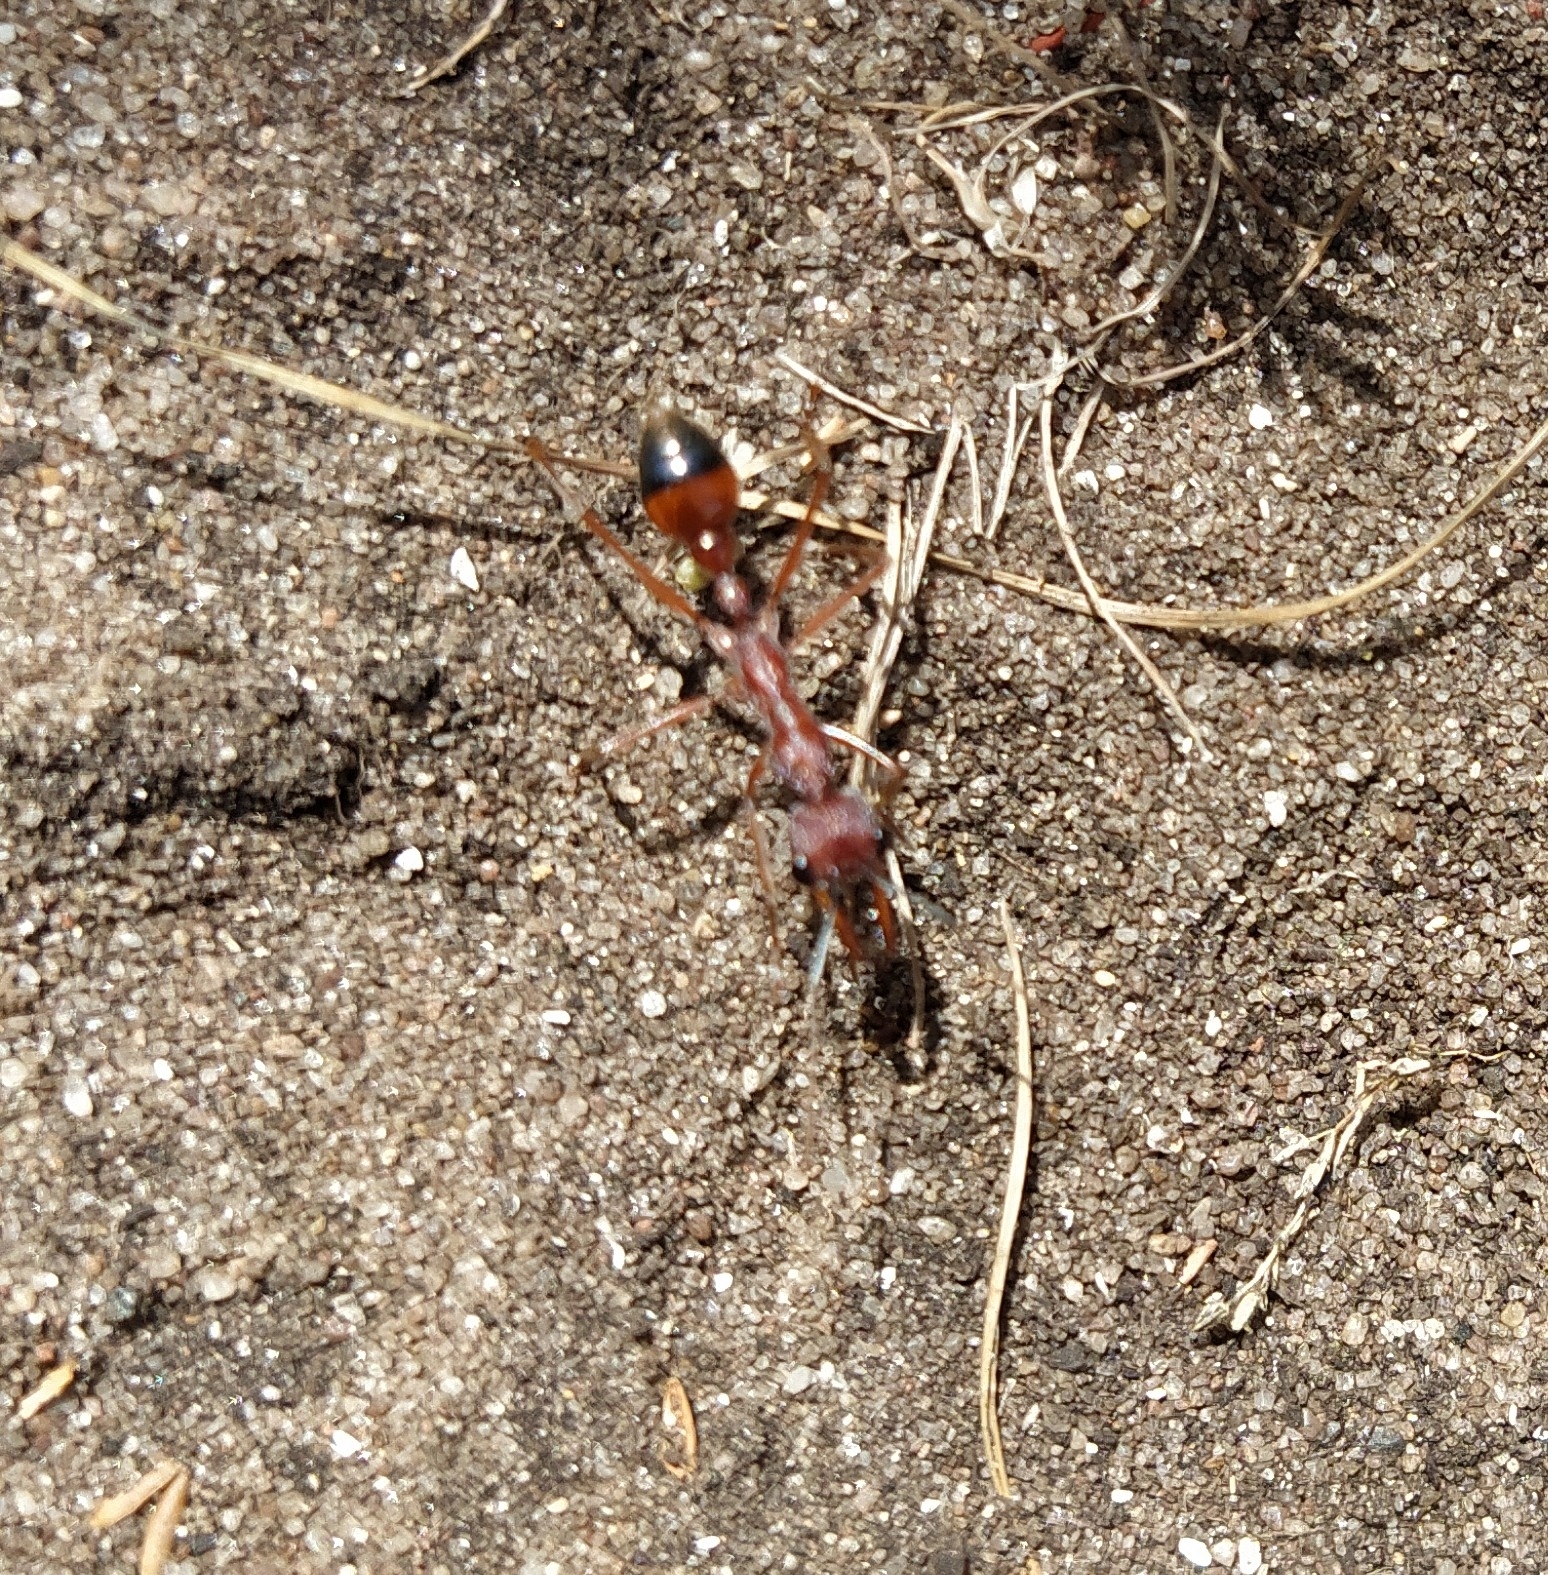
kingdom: Animalia
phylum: Arthropoda
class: Insecta
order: Hymenoptera
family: Formicidae
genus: Myrmecia
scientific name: Myrmecia nigriscapa
